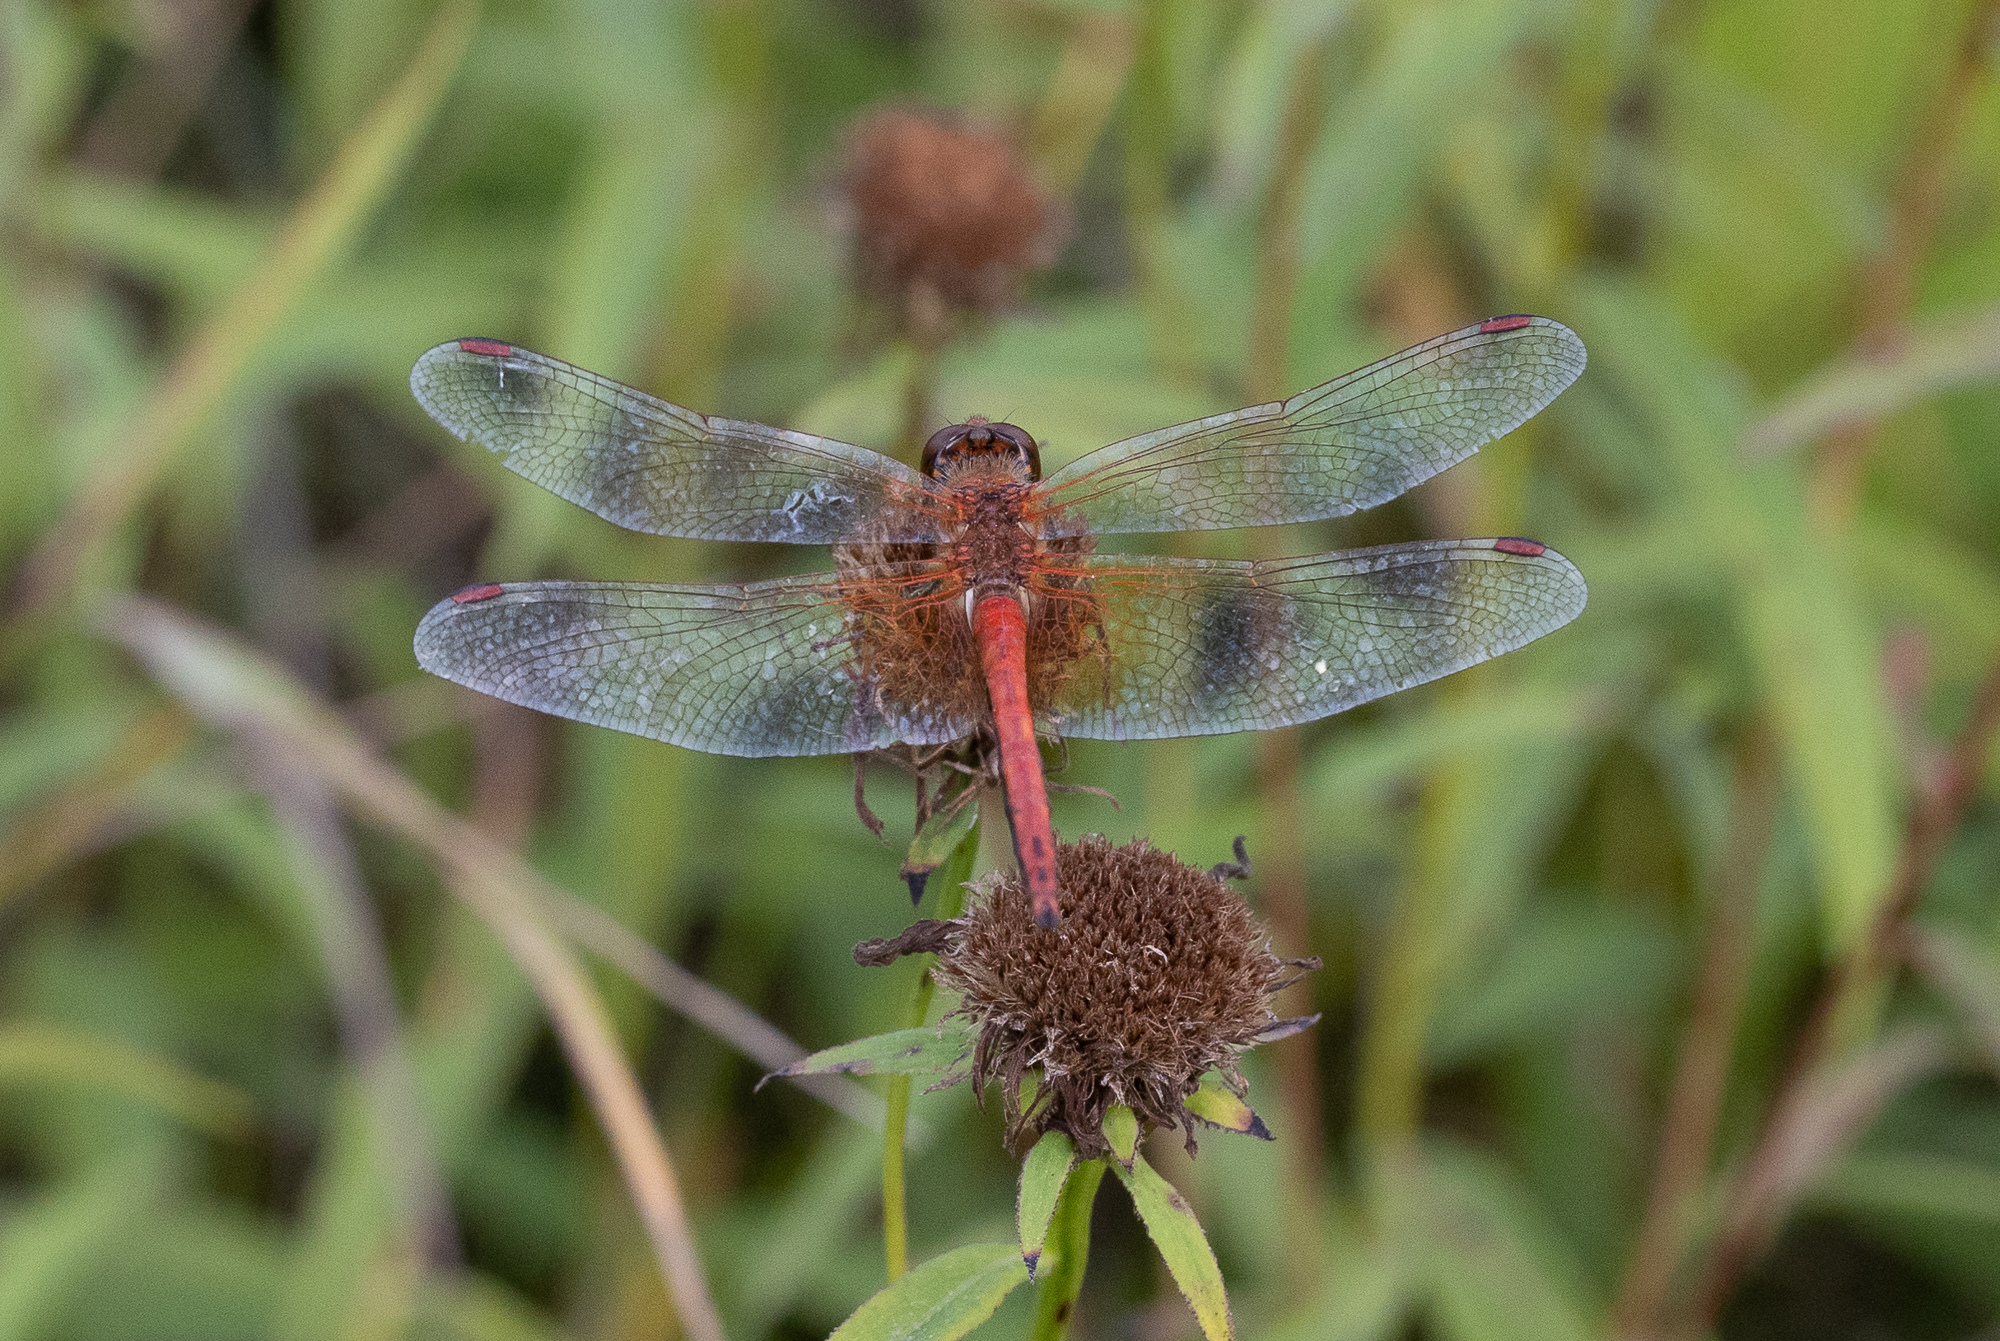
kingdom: Animalia
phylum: Arthropoda
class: Insecta
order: Odonata
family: Libellulidae
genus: Sympetrum
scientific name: Sympetrum flaveolum
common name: Yellow-winged darter
